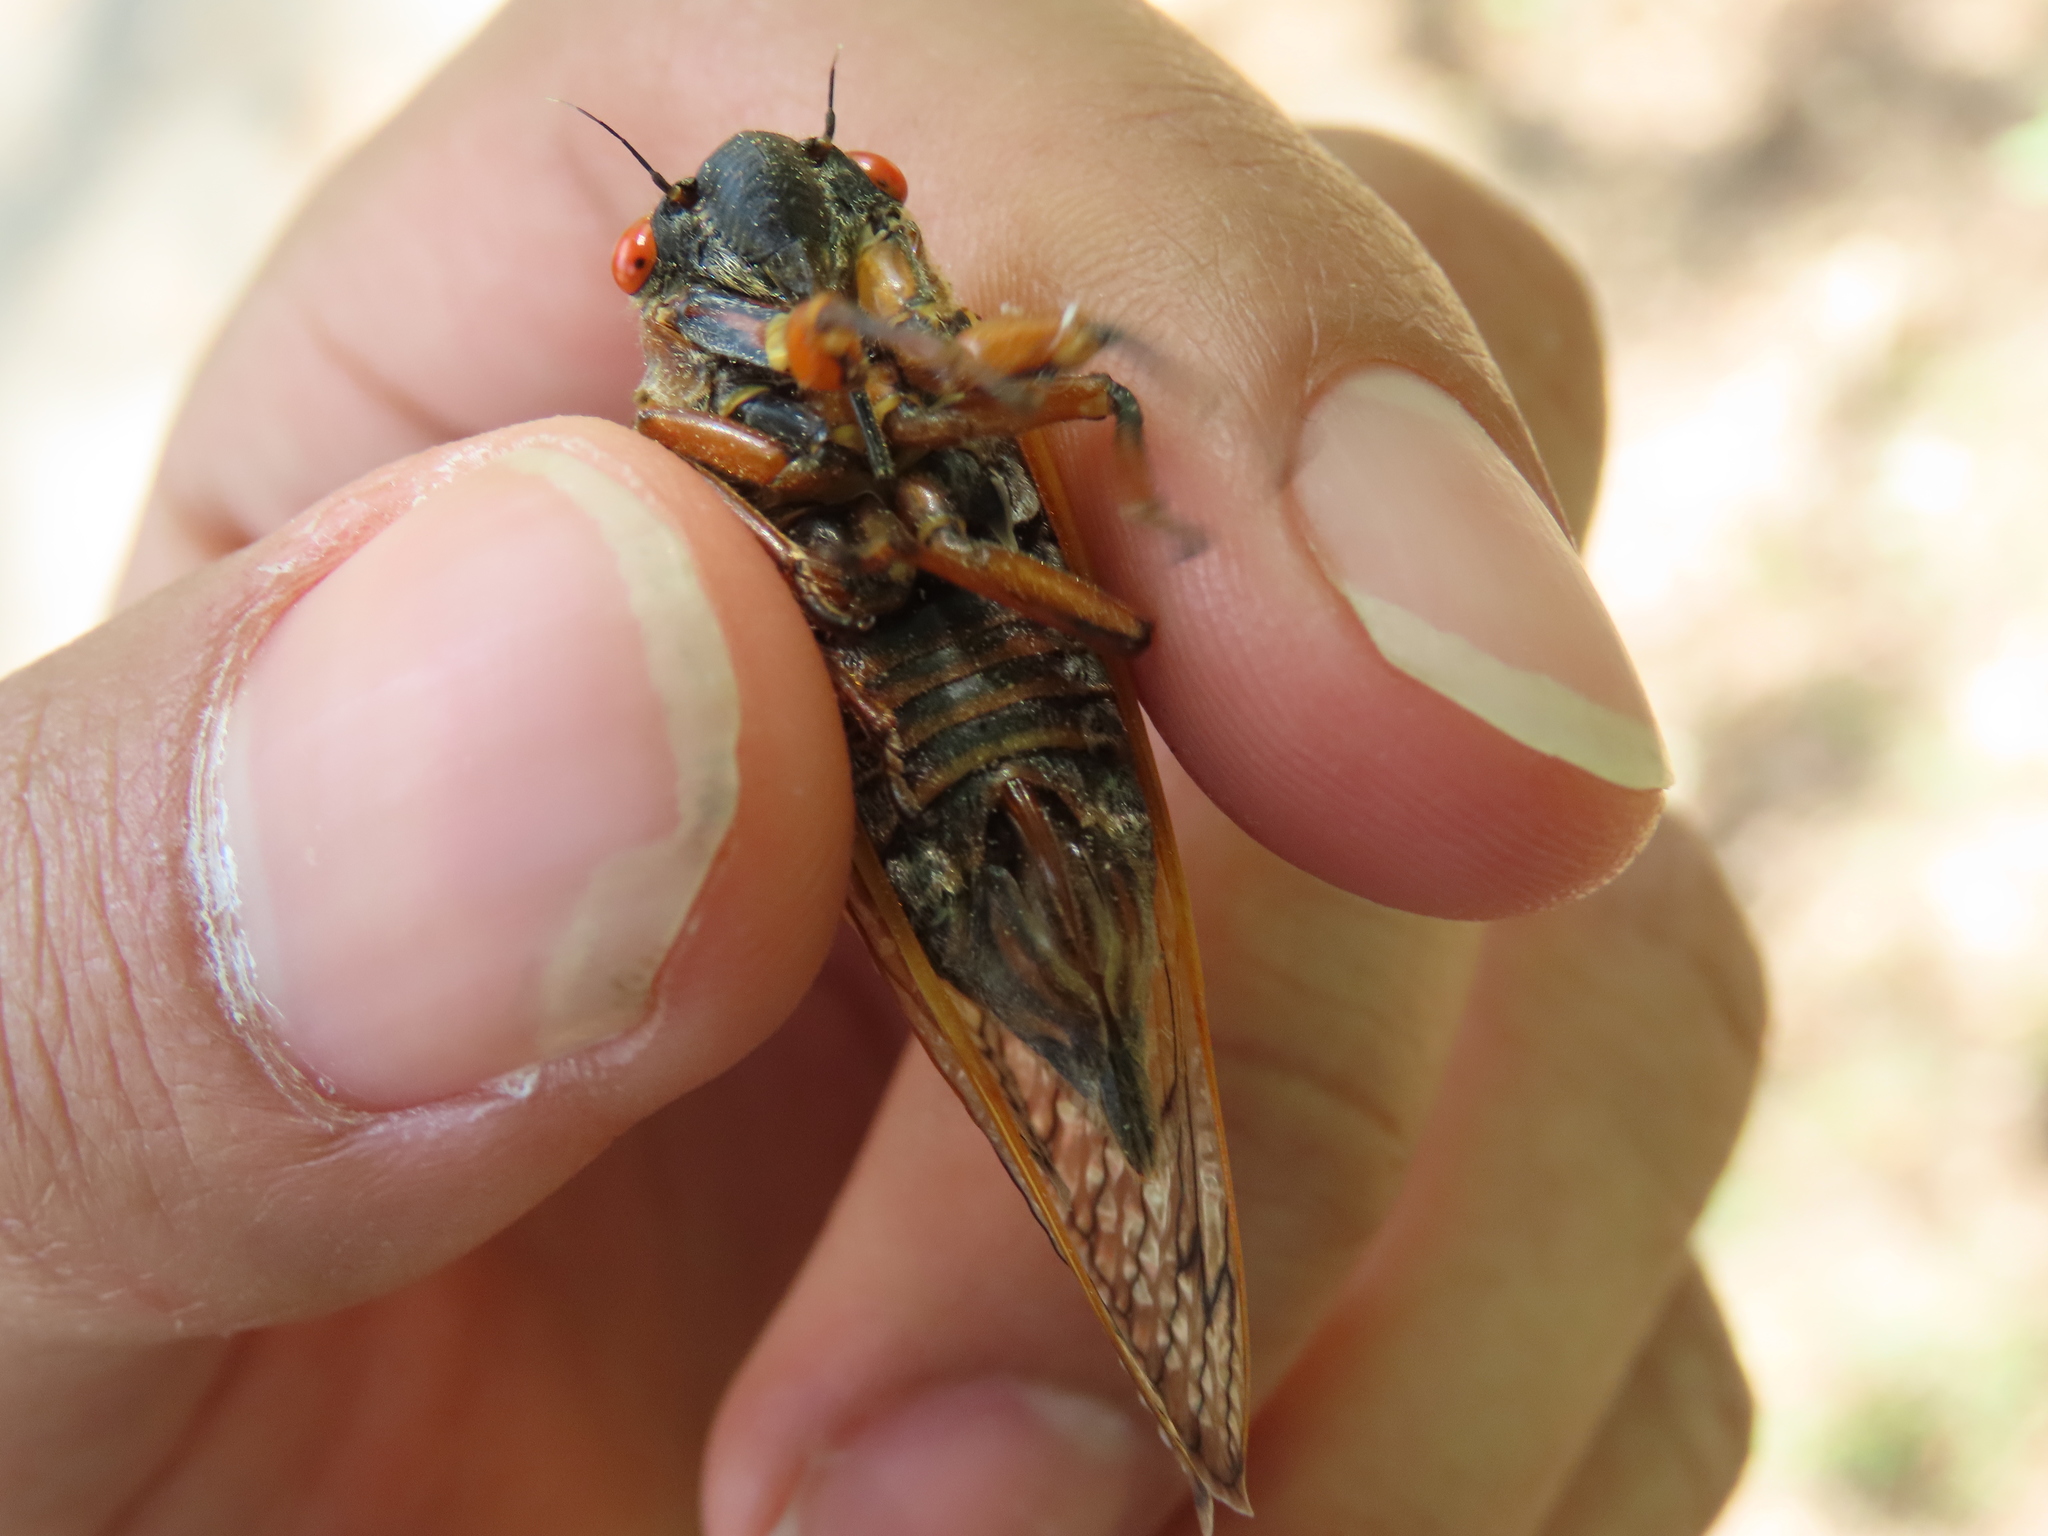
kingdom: Animalia
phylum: Arthropoda
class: Insecta
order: Hemiptera
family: Cicadidae
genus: Magicicada
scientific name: Magicicada septendecim
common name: Periodical cicada
